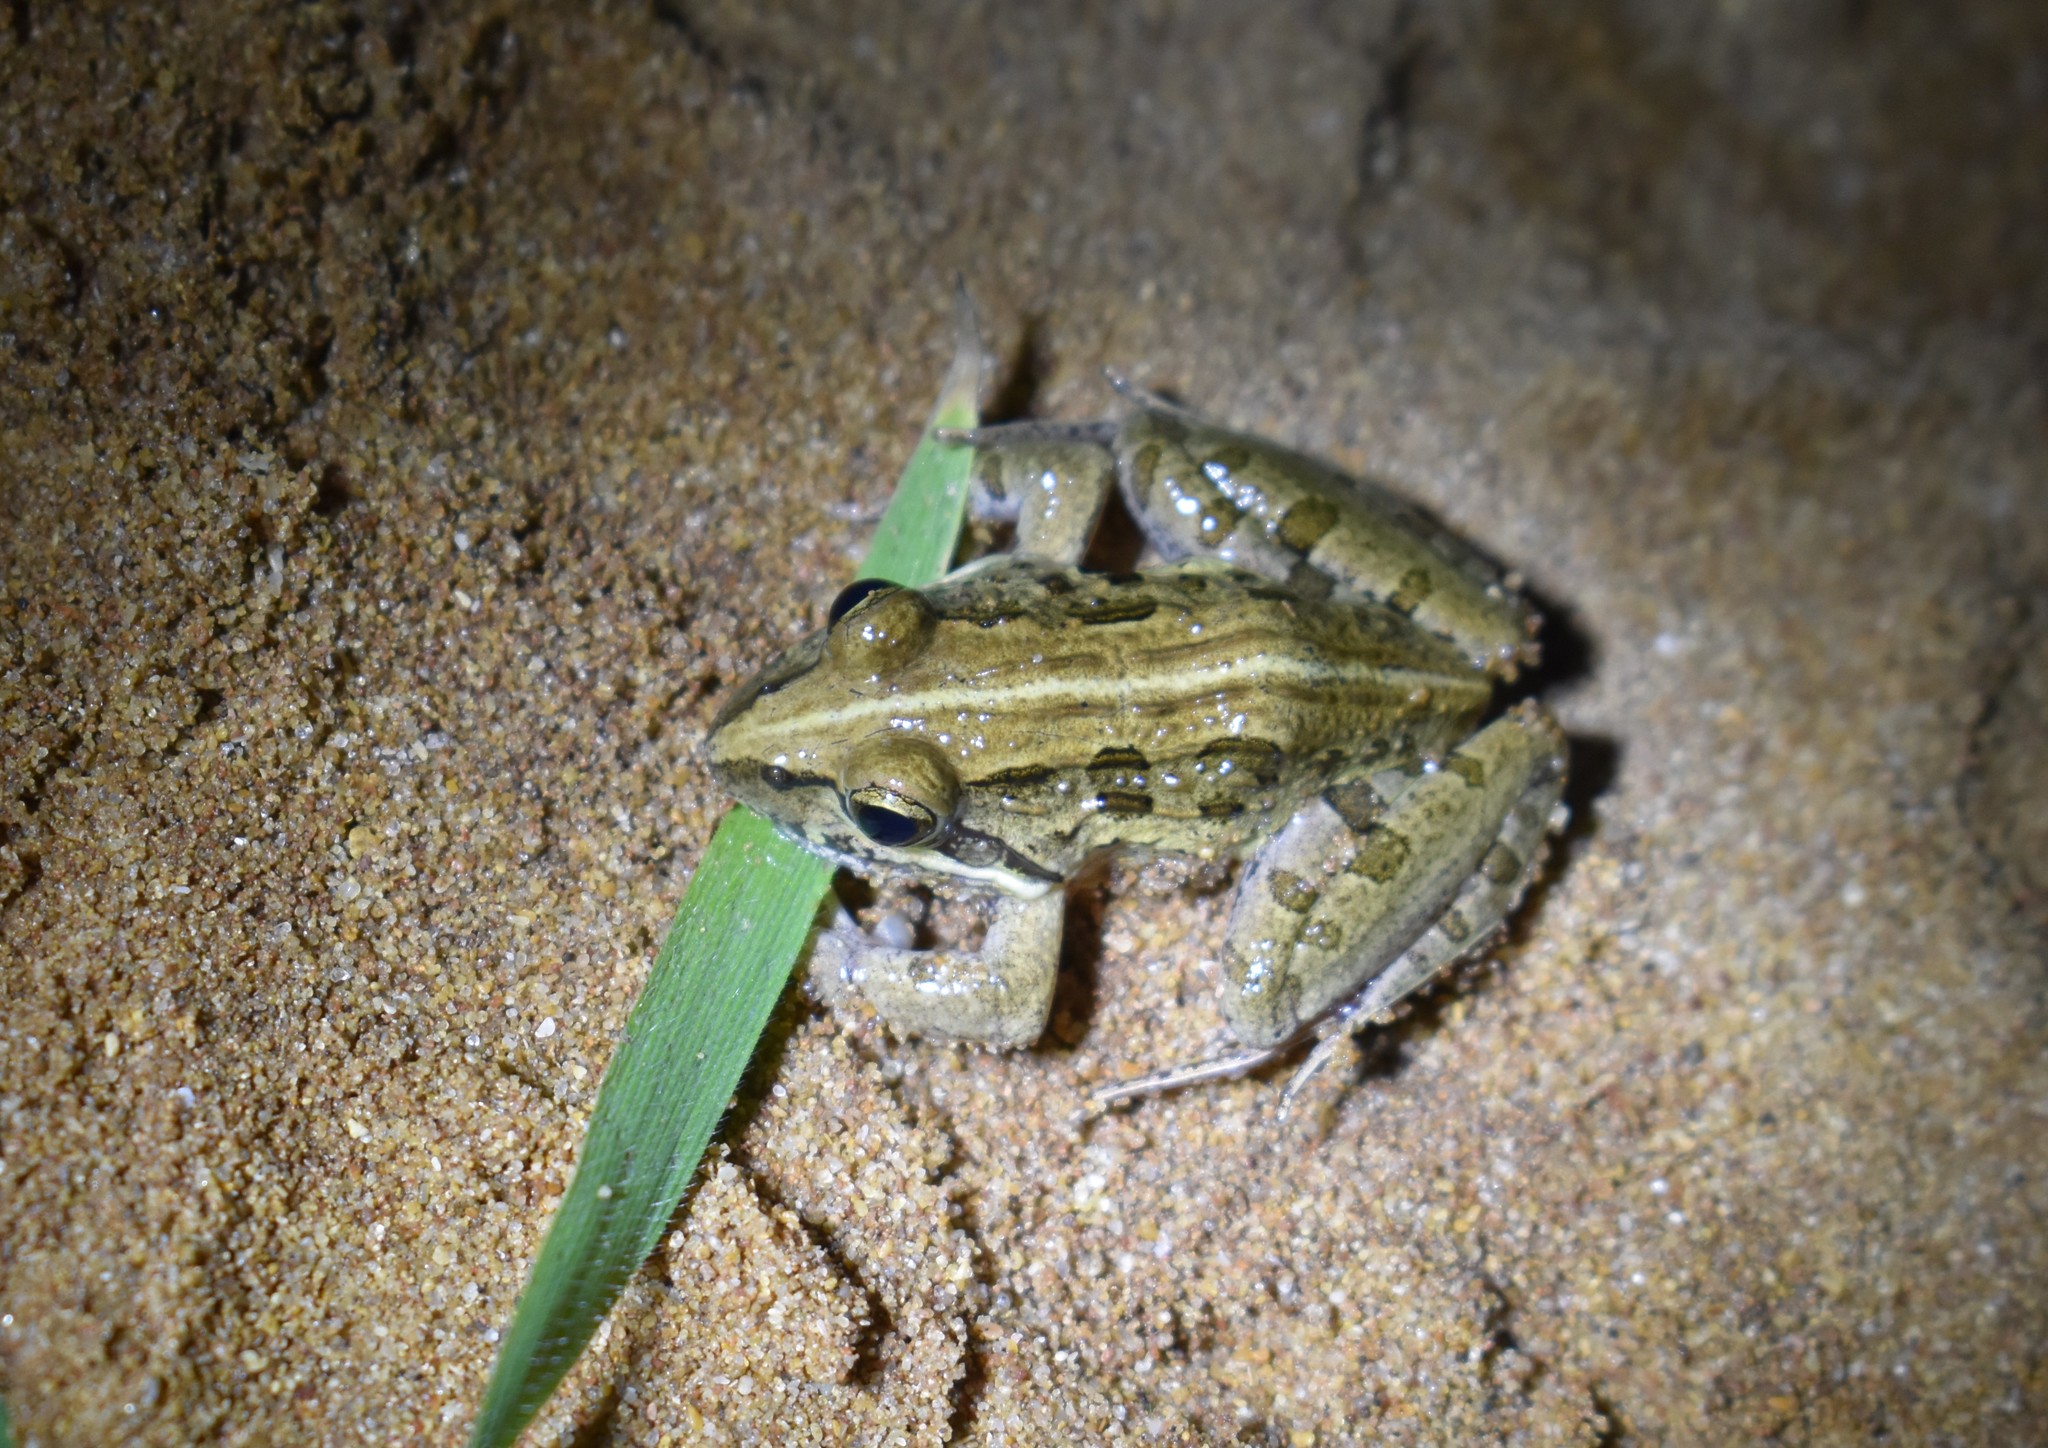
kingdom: Animalia
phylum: Chordata
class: Amphibia
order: Anura
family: Pyxicephalidae
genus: Strongylopus
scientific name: Strongylopus grayii
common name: Gray's stream frog
